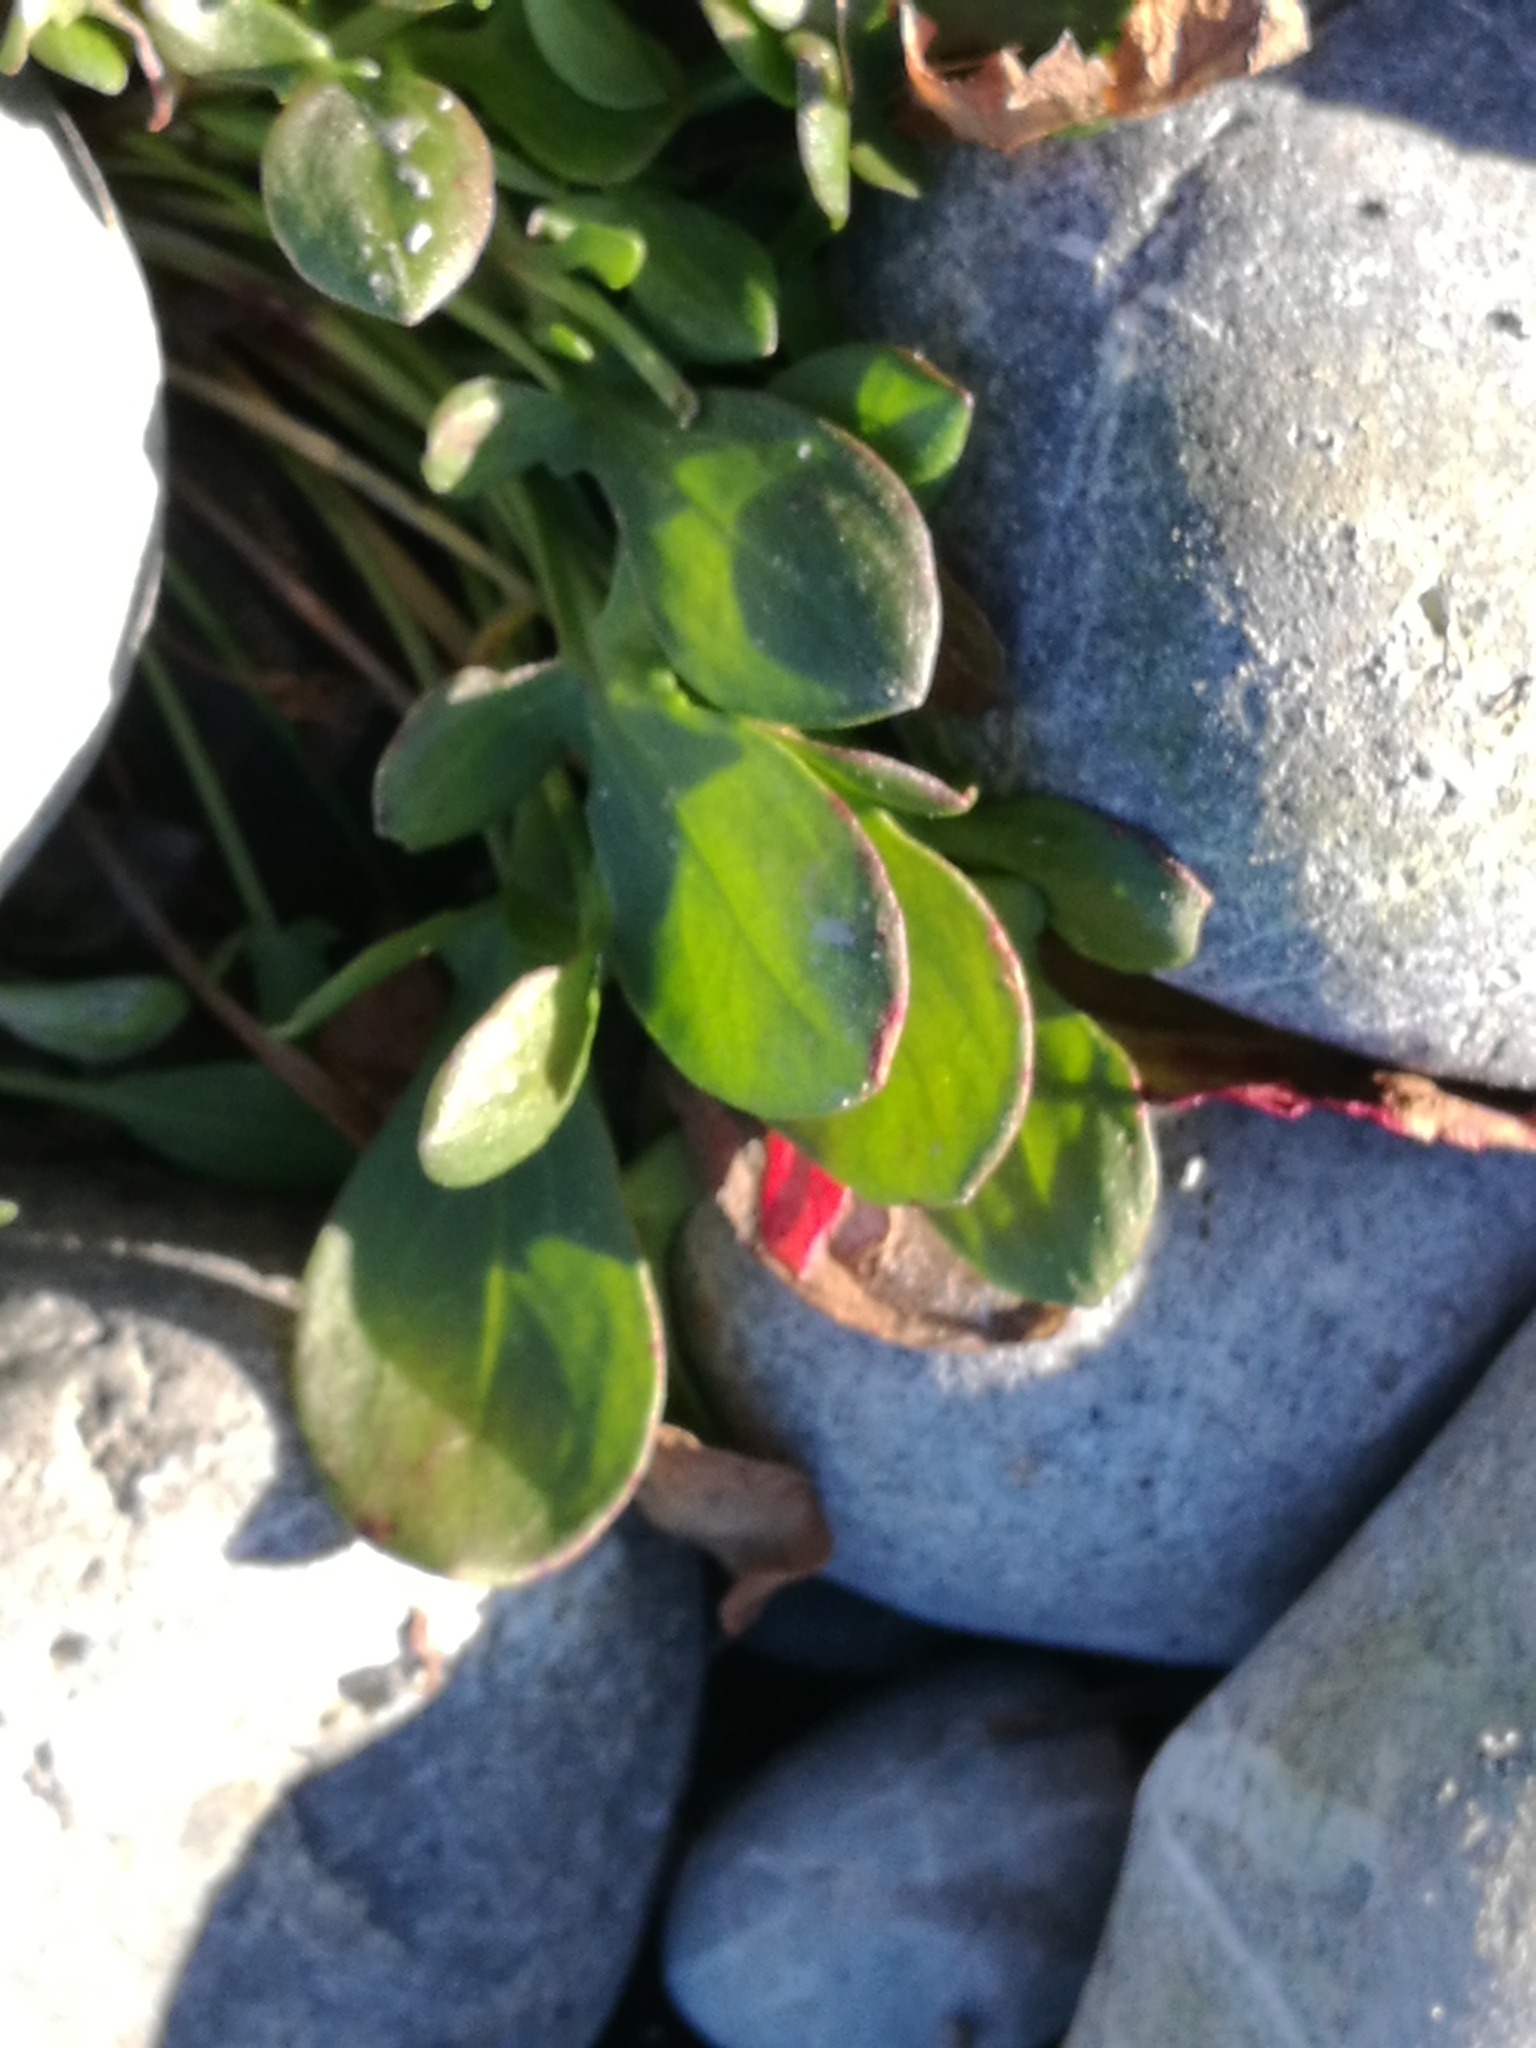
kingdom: Plantae
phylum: Tracheophyta
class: Magnoliopsida
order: Caryophyllales
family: Polygonaceae
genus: Rumex
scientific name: Rumex acetosella
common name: Common sheep sorrel
